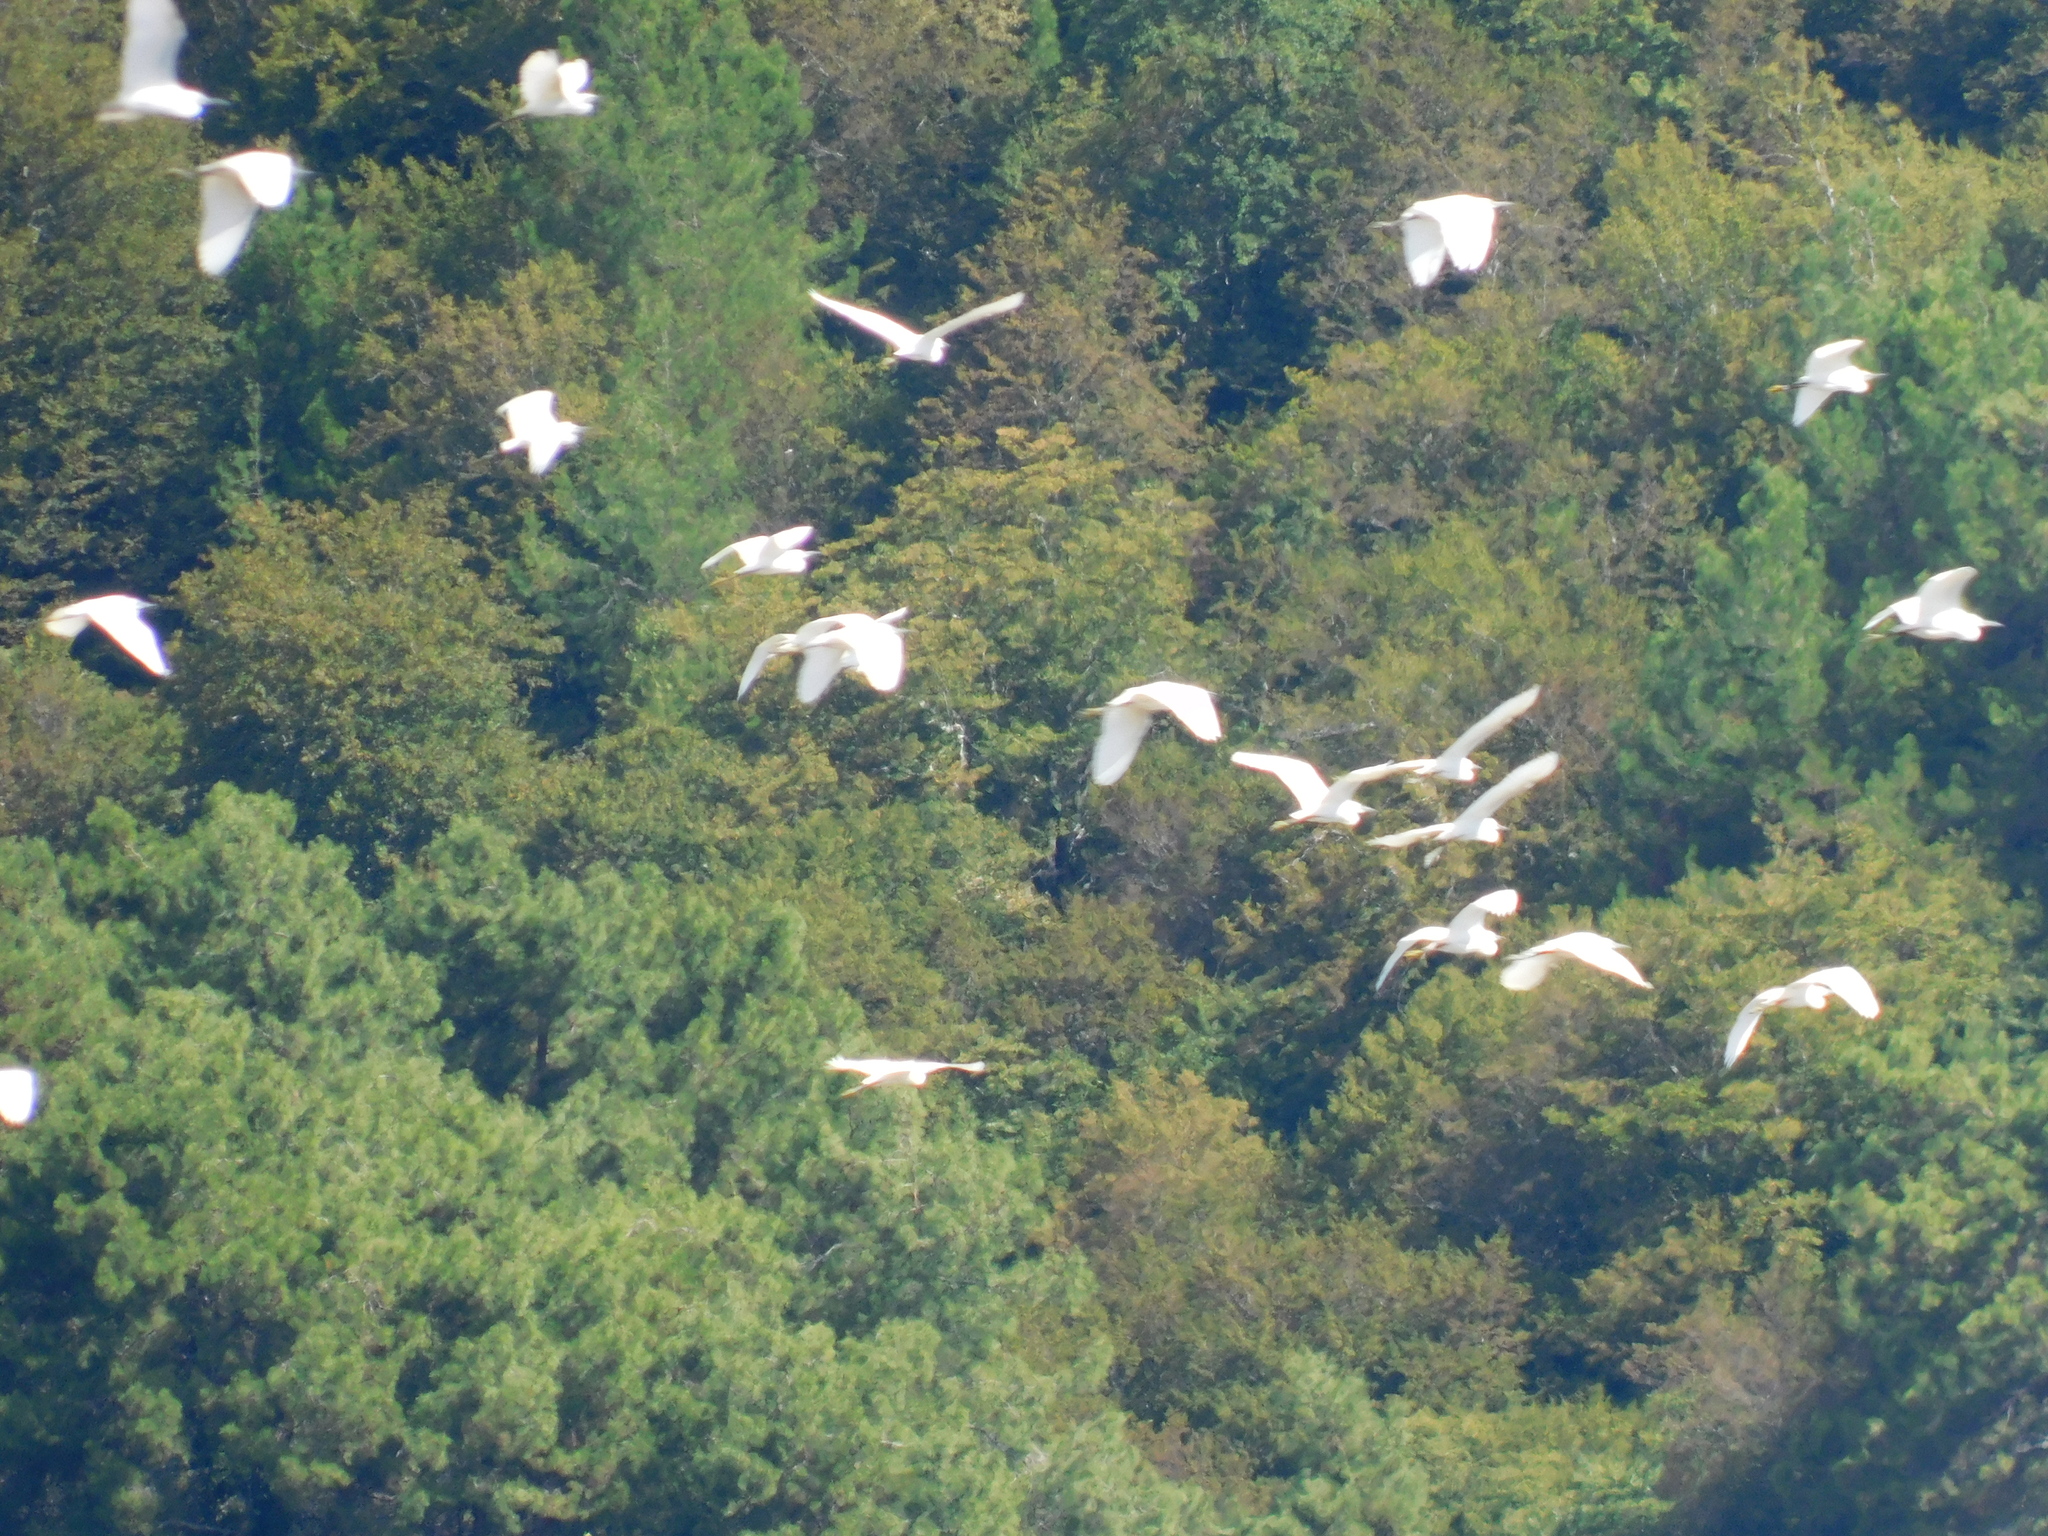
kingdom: Animalia
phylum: Chordata
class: Aves
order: Pelecaniformes
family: Ardeidae
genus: Egretta
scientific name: Egretta garzetta
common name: Little egret
